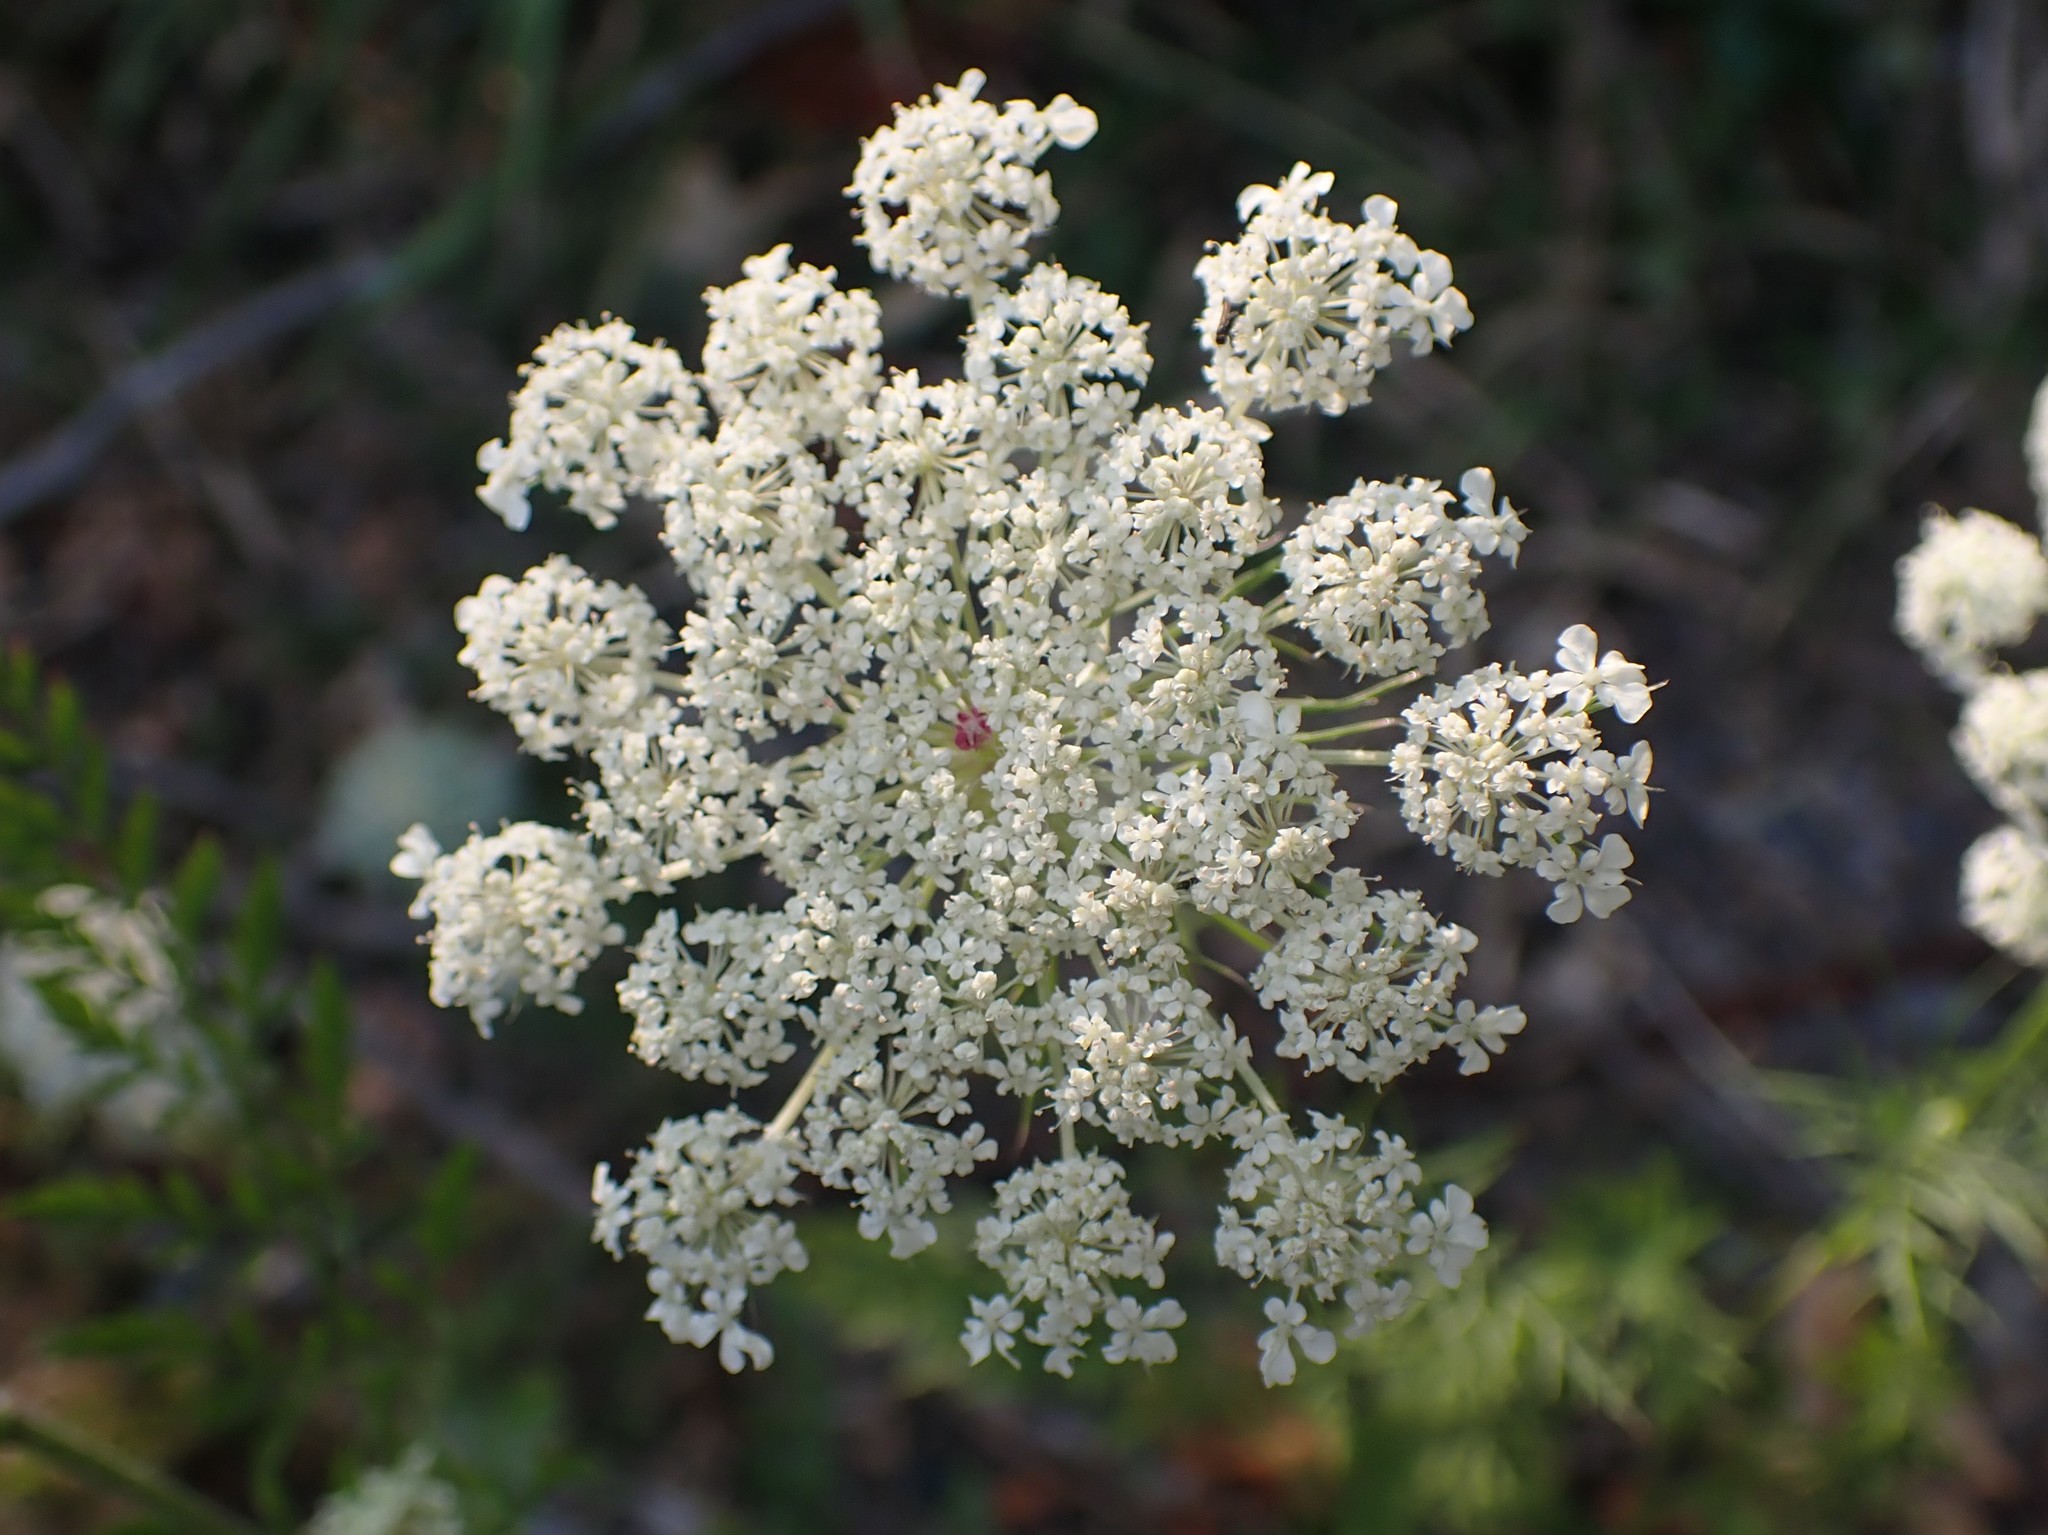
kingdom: Plantae
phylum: Tracheophyta
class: Magnoliopsida
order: Apiales
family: Apiaceae
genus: Daucus
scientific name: Daucus carota
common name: Wild carrot
